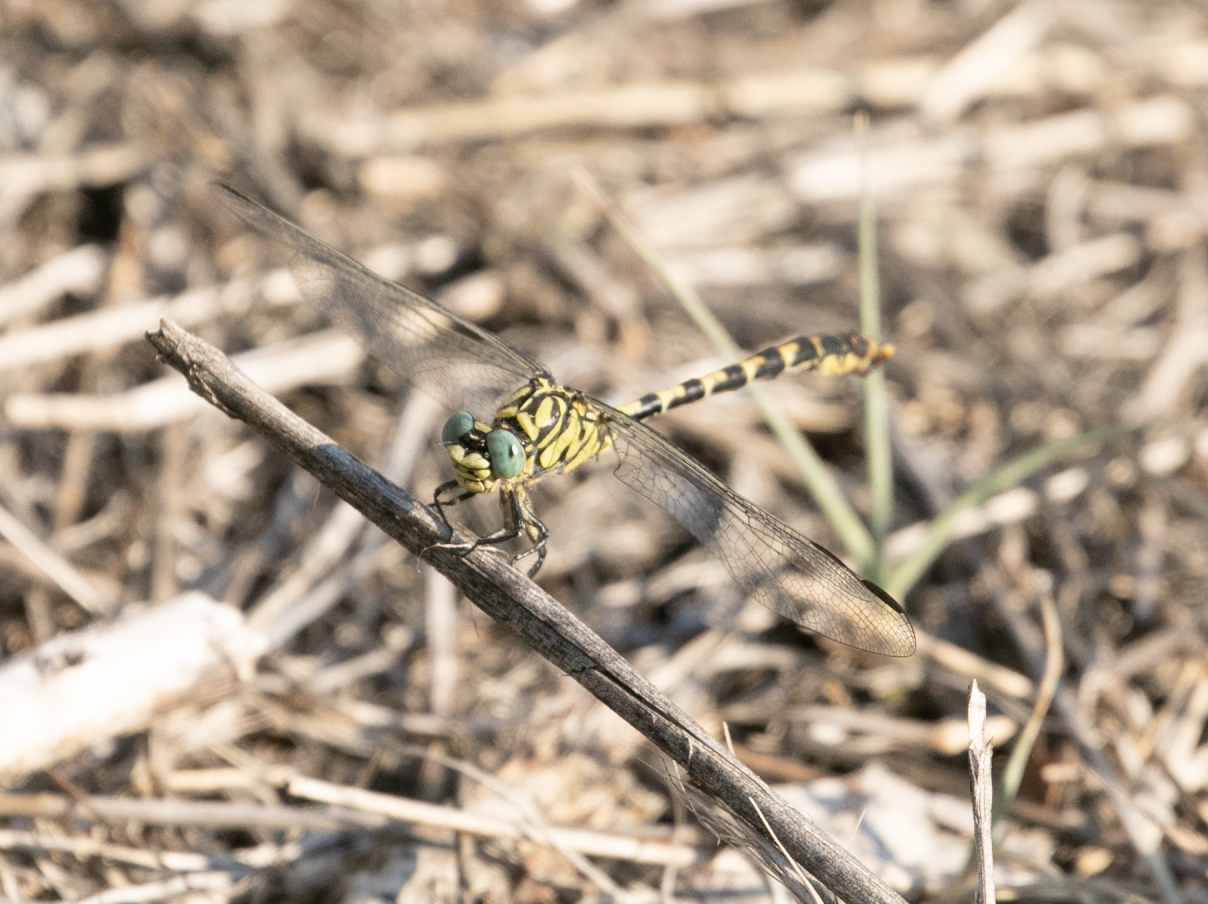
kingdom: Animalia
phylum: Arthropoda
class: Insecta
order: Odonata
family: Gomphidae
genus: Onychogomphus
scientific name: Onychogomphus forcipatus
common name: Small pincertail
